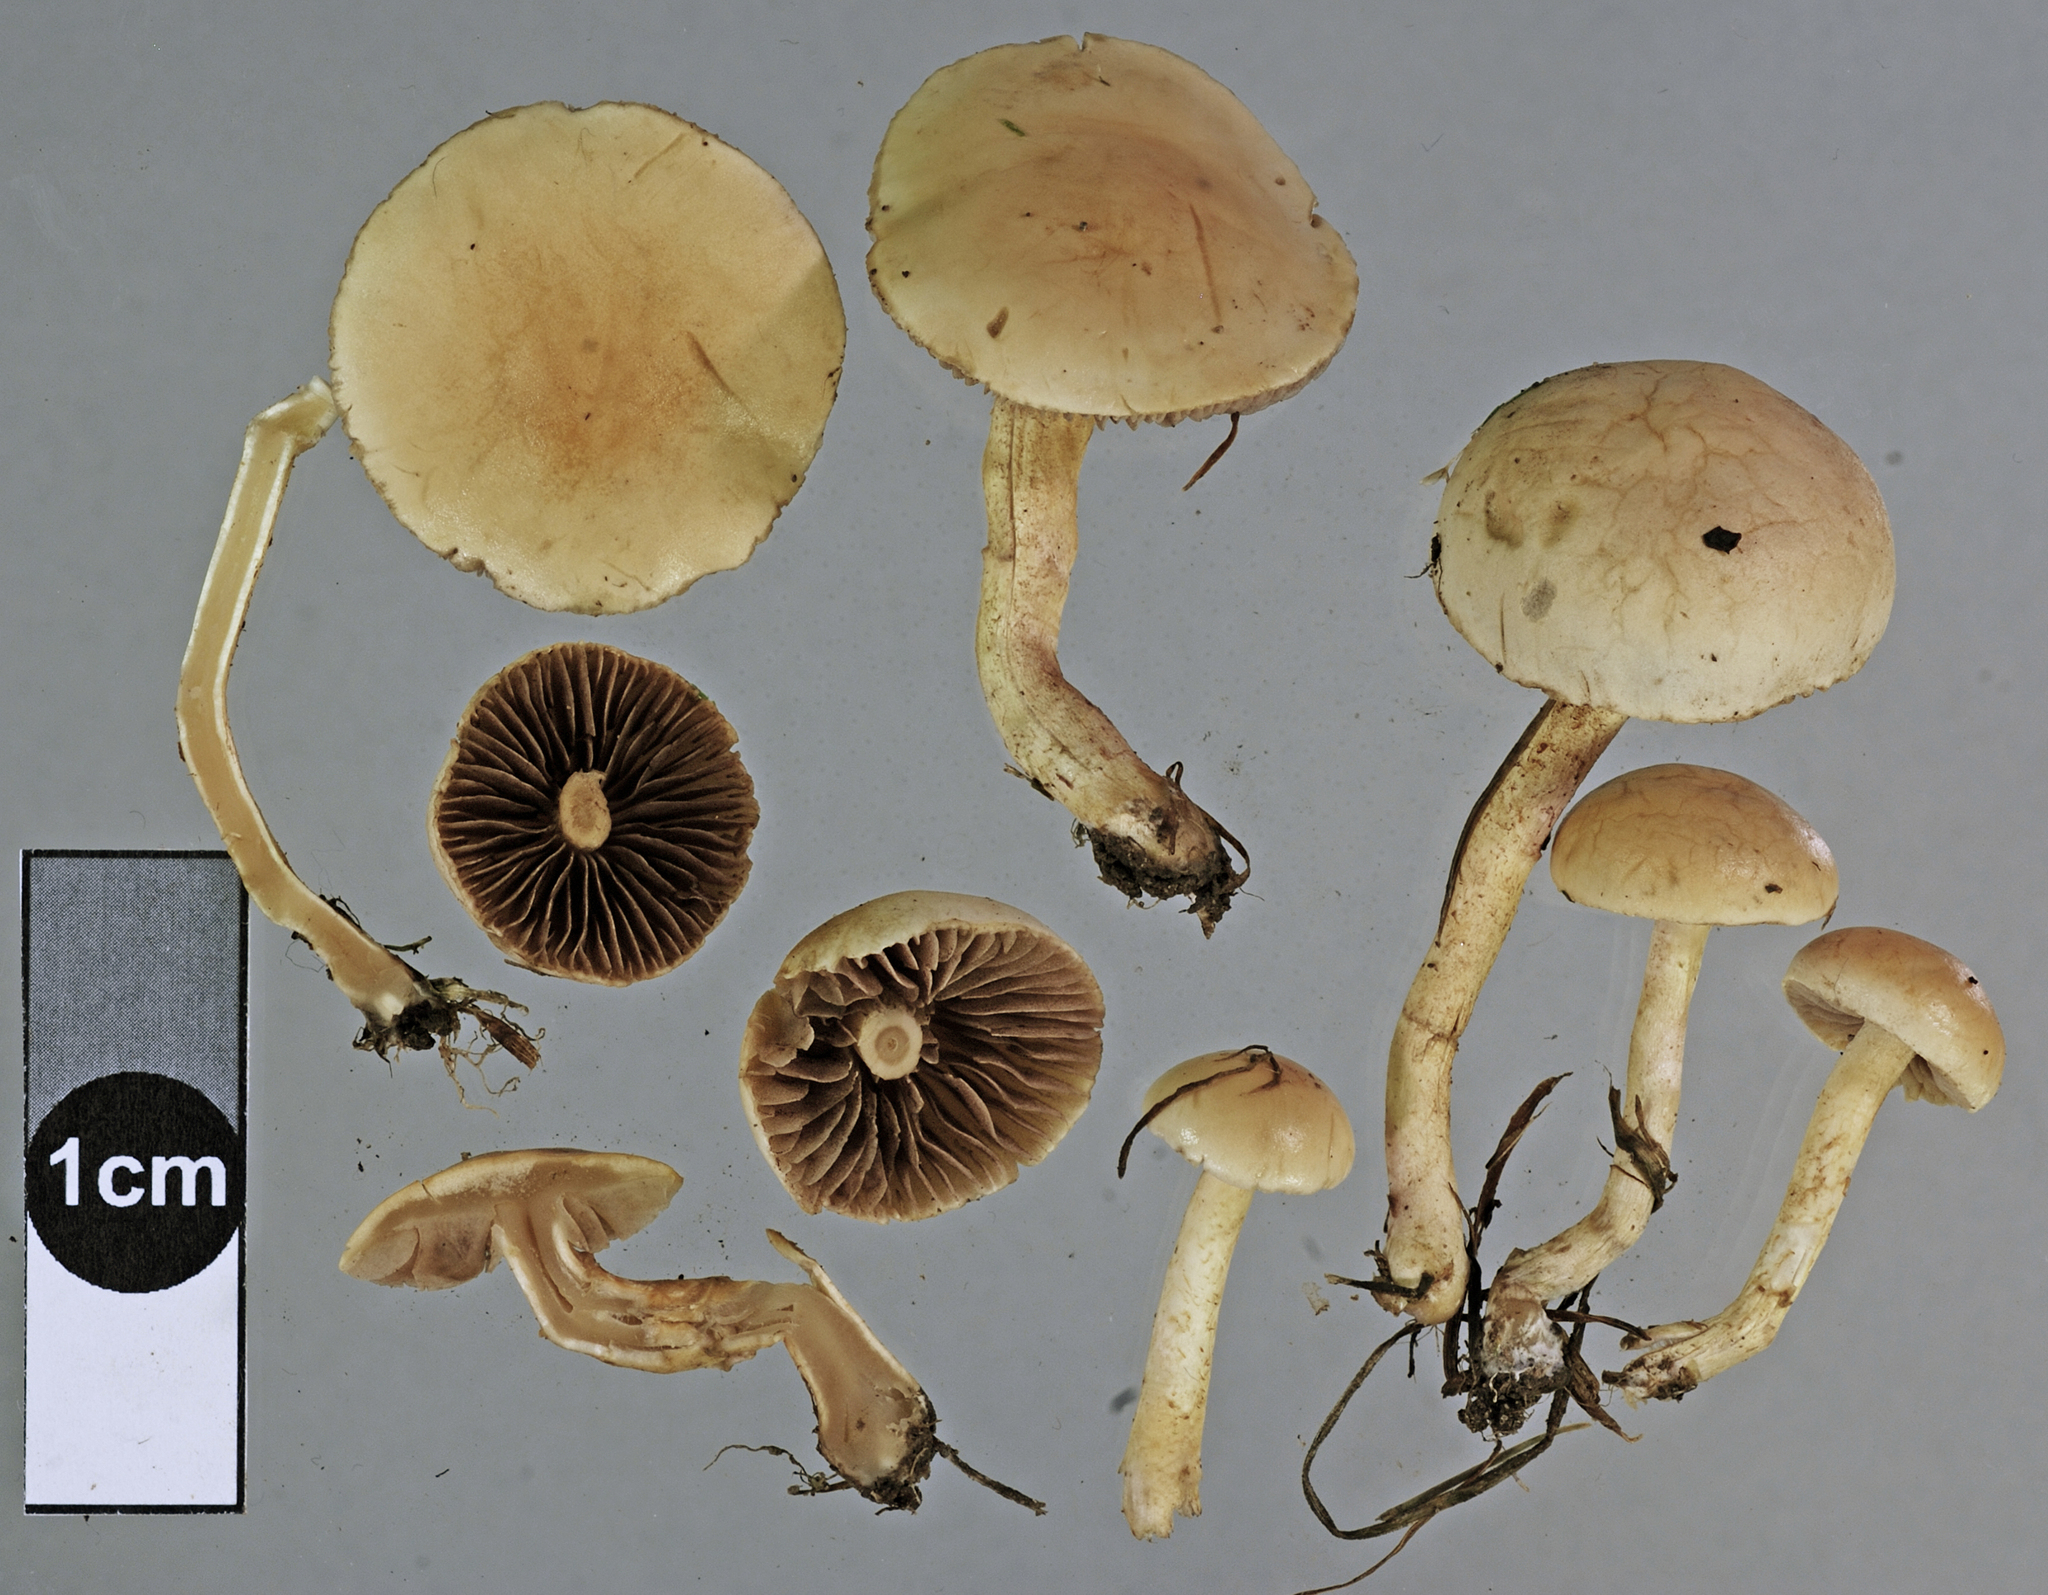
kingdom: Fungi
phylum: Basidiomycota
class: Agaricomycetes
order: Agaricales
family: Strophariaceae
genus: Agrocybe
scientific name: Agrocybe pediades
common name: Common fieldcap
